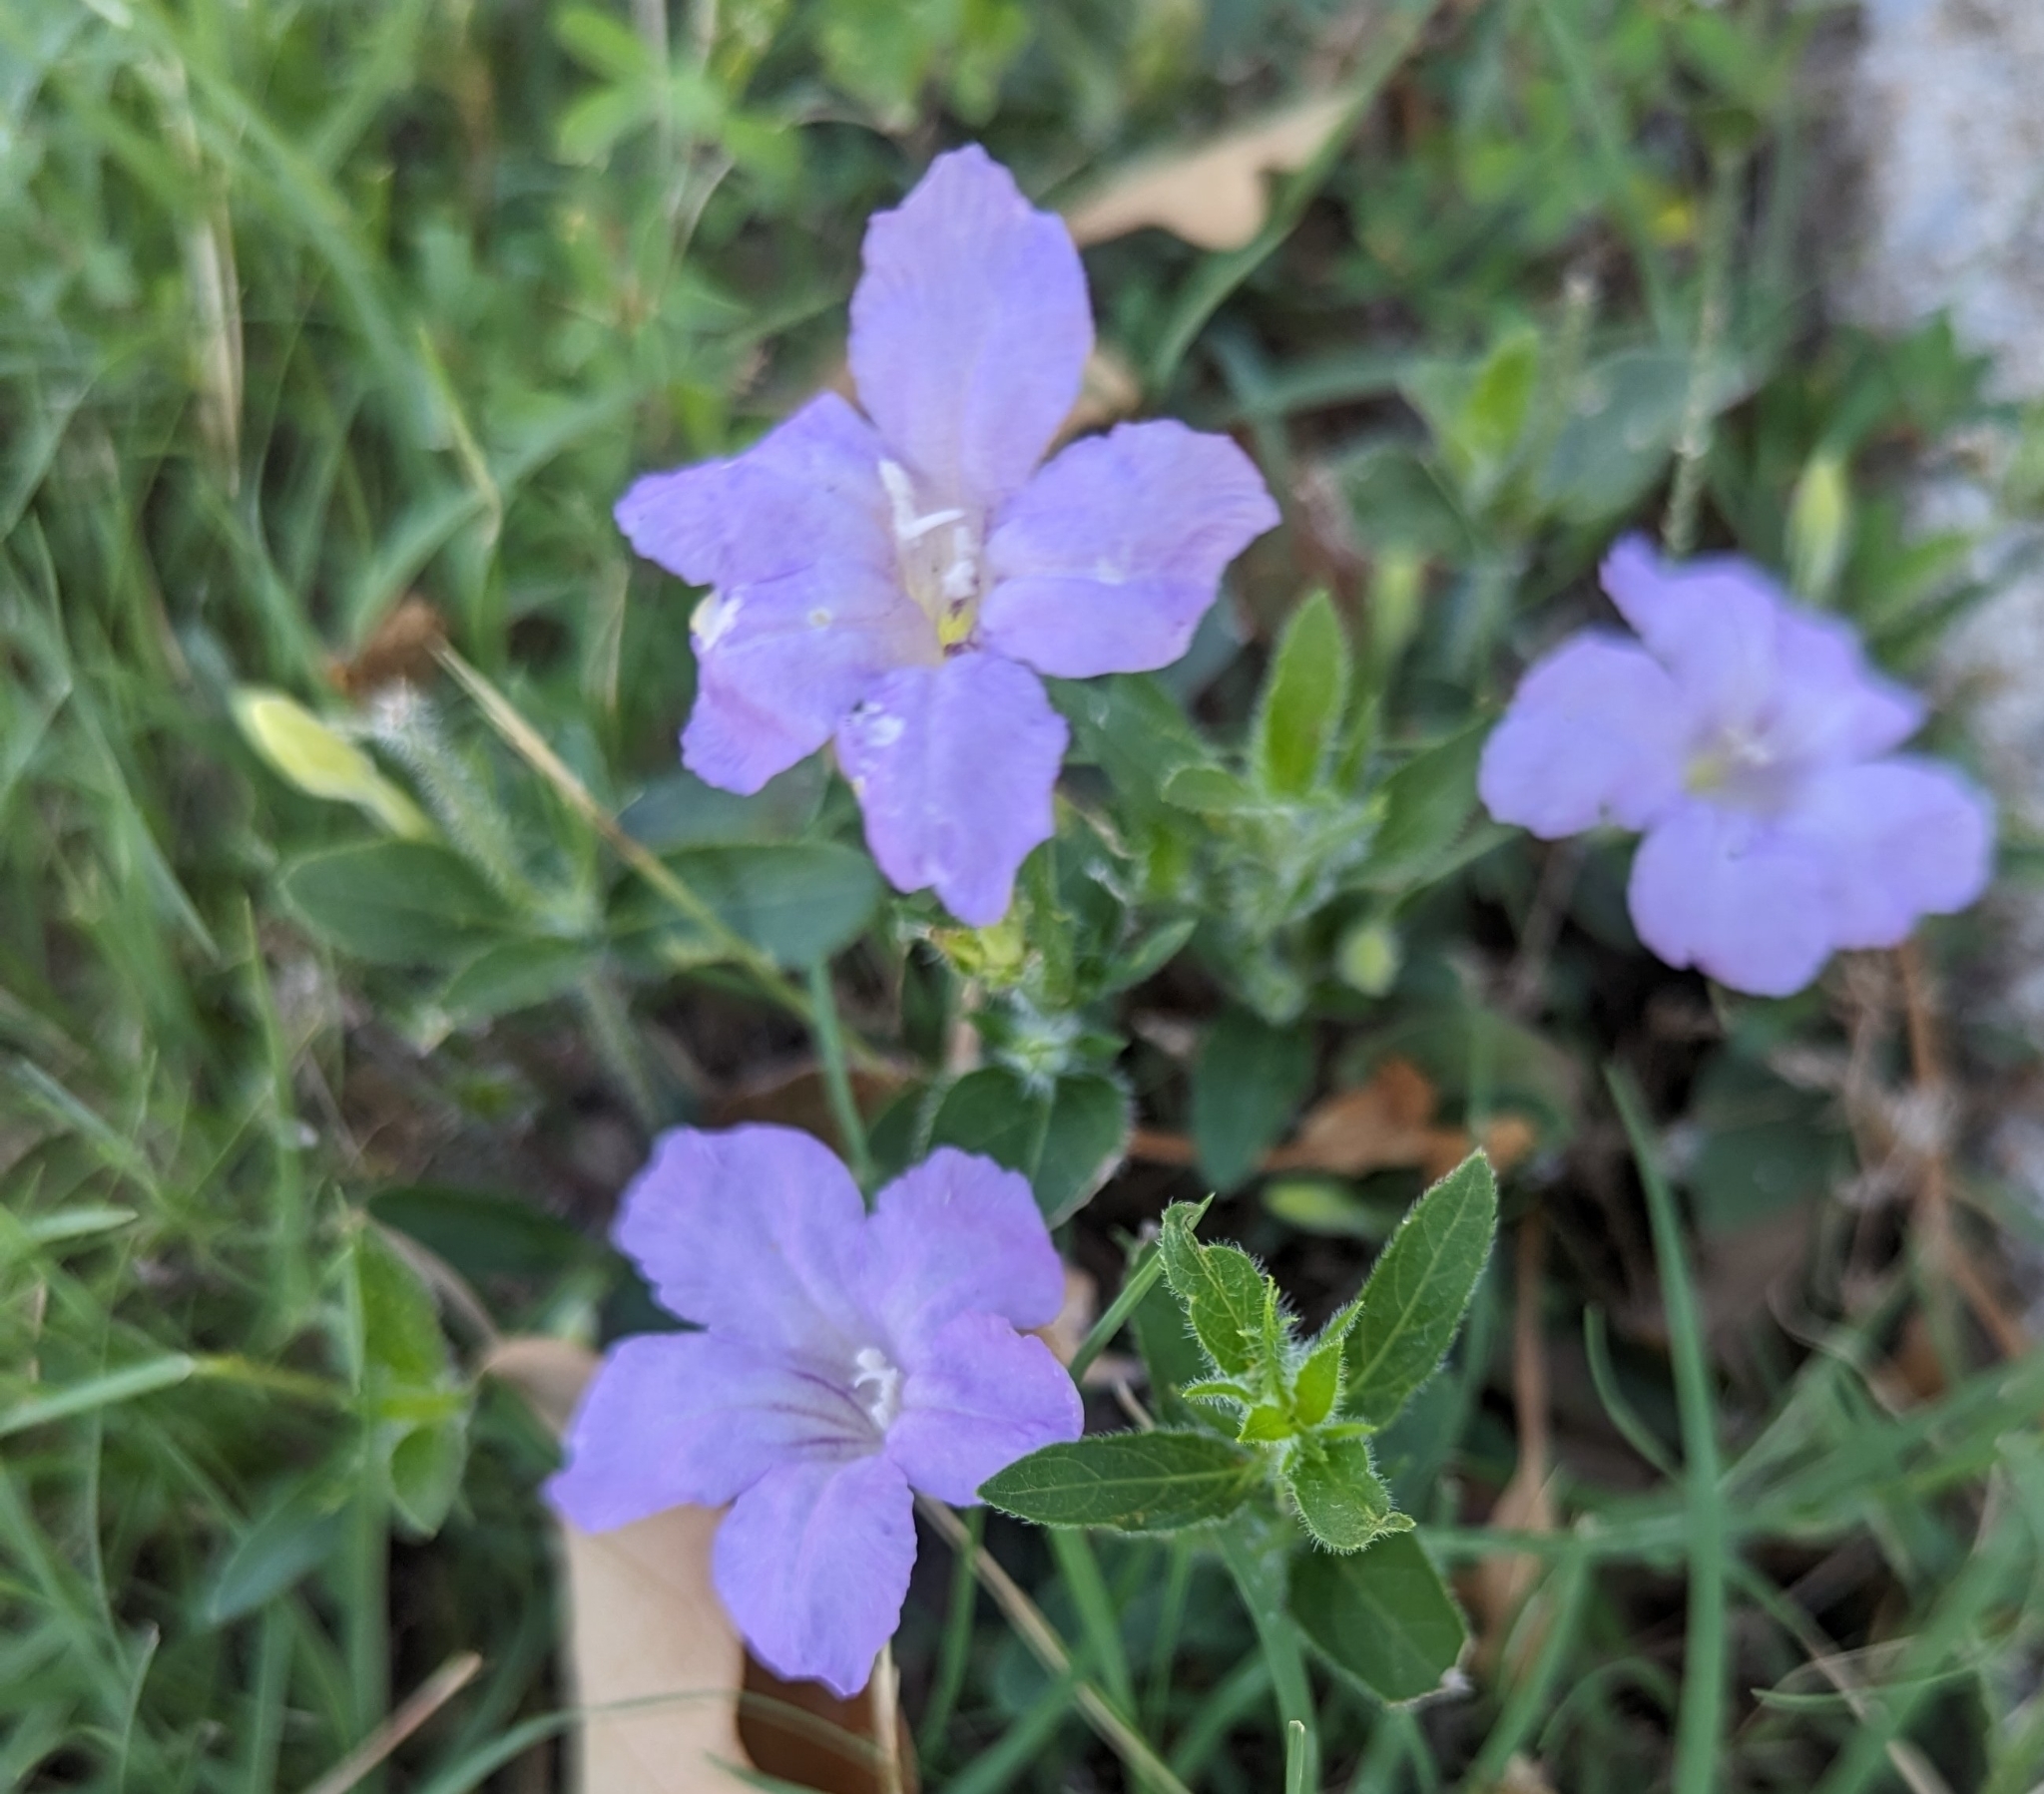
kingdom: Plantae
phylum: Tracheophyta
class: Magnoliopsida
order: Lamiales
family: Acanthaceae
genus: Ruellia
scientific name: Ruellia humilis
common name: Fringe-leaf ruellia
